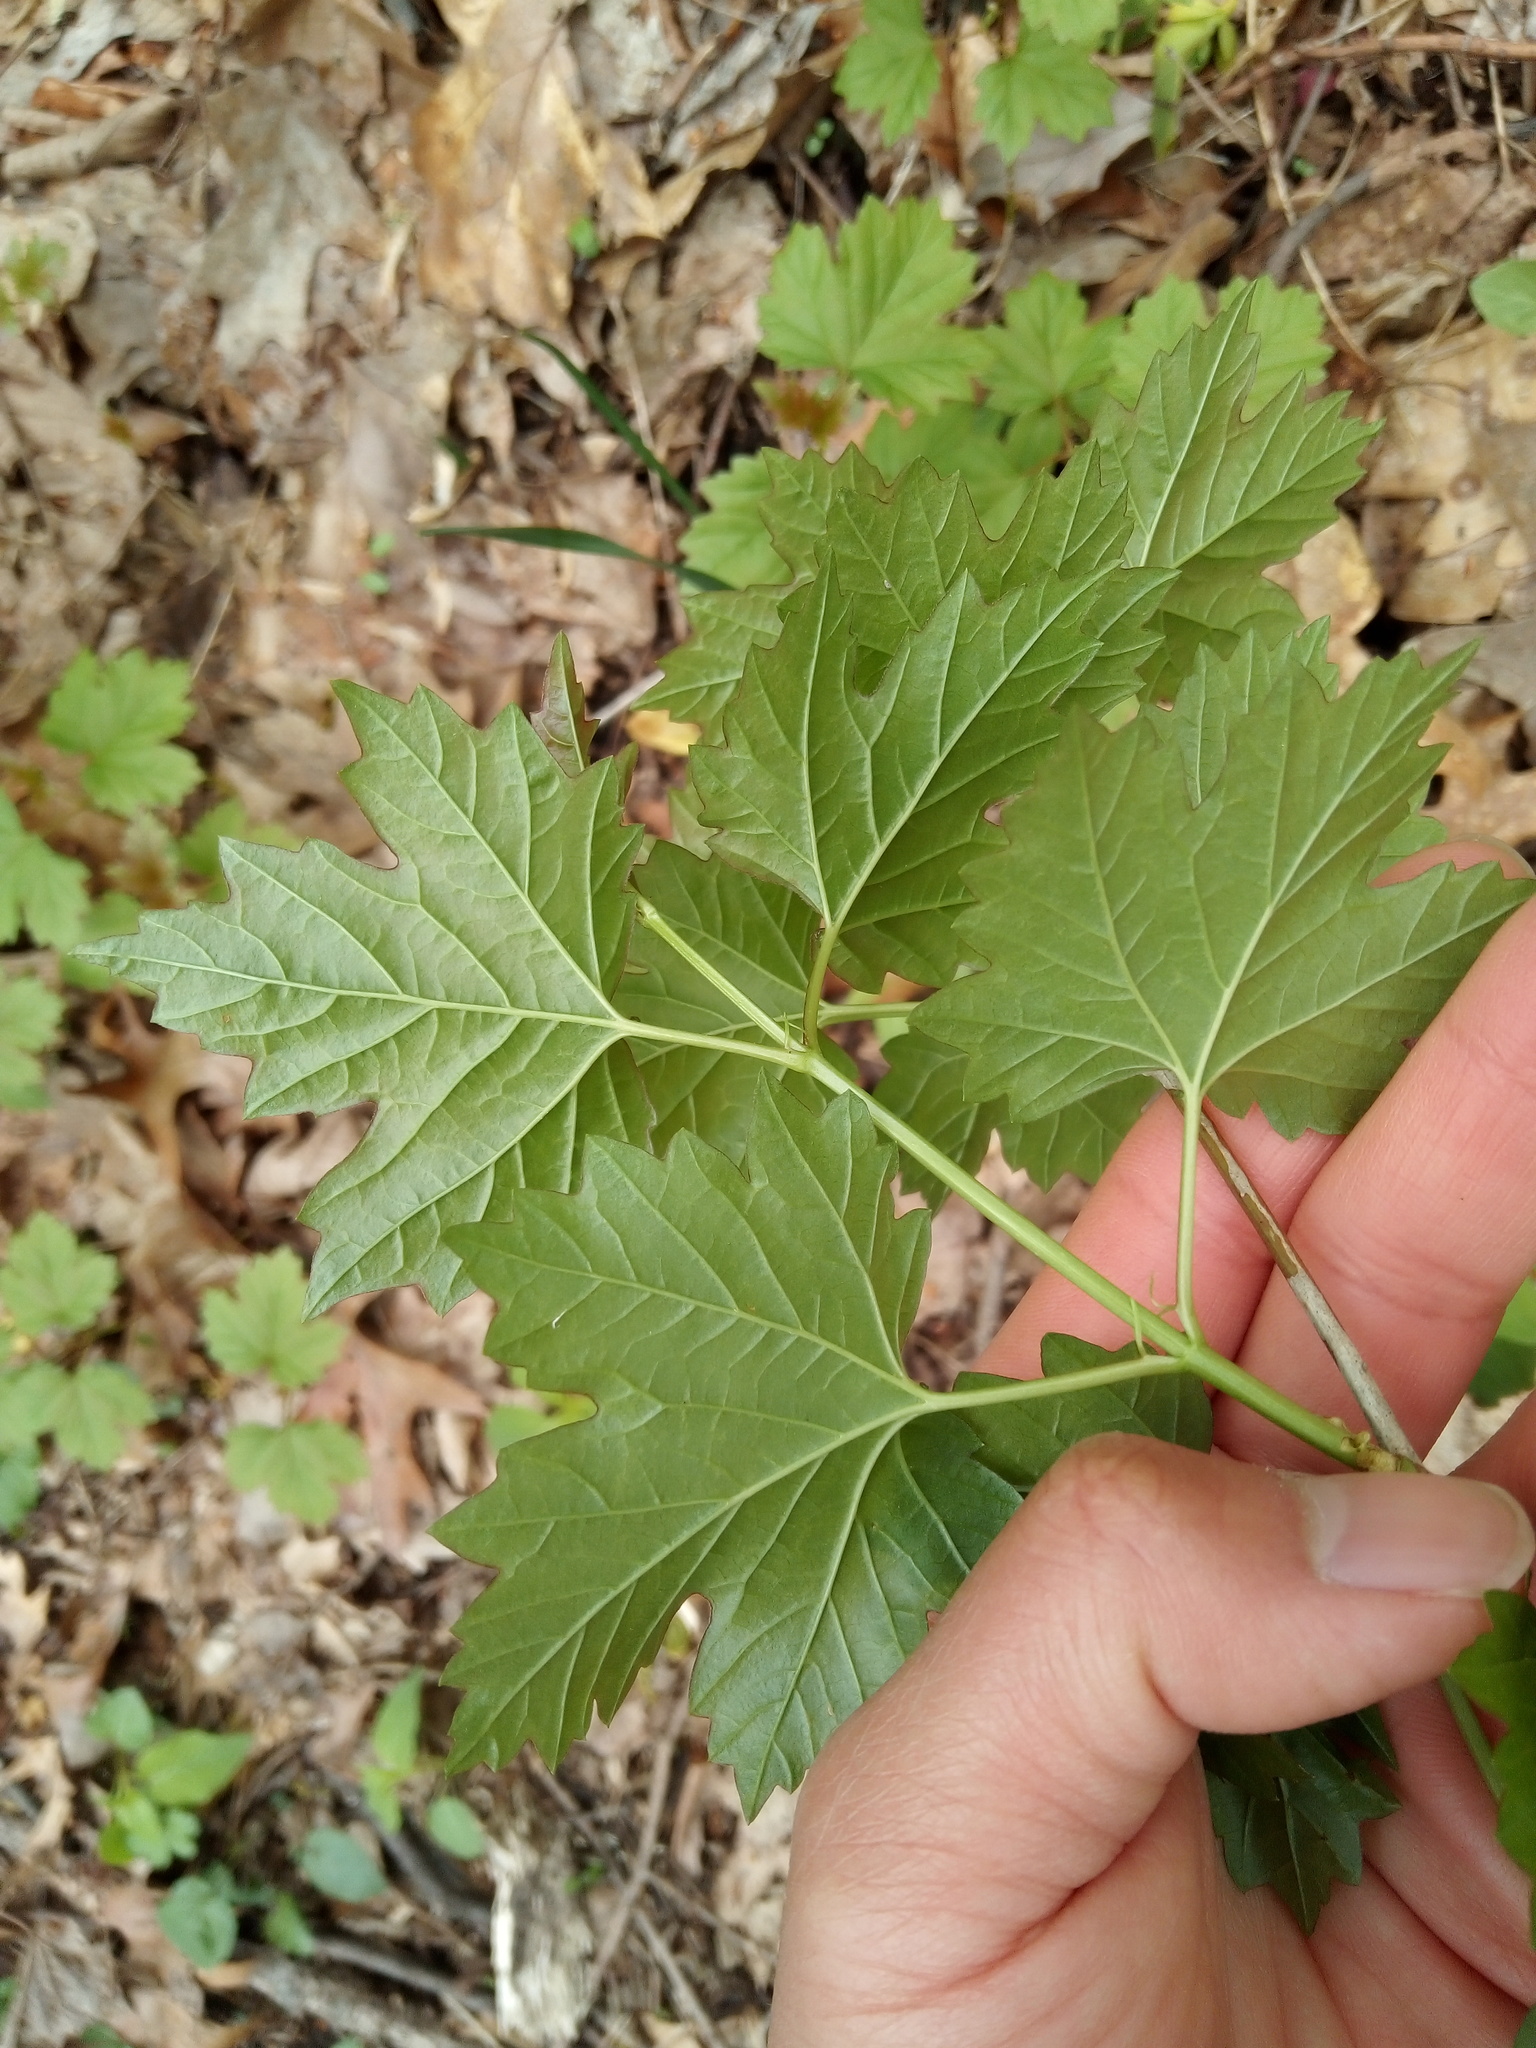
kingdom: Plantae
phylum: Tracheophyta
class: Magnoliopsida
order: Dipsacales
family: Viburnaceae
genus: Viburnum
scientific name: Viburnum opulus
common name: Guelder-rose
